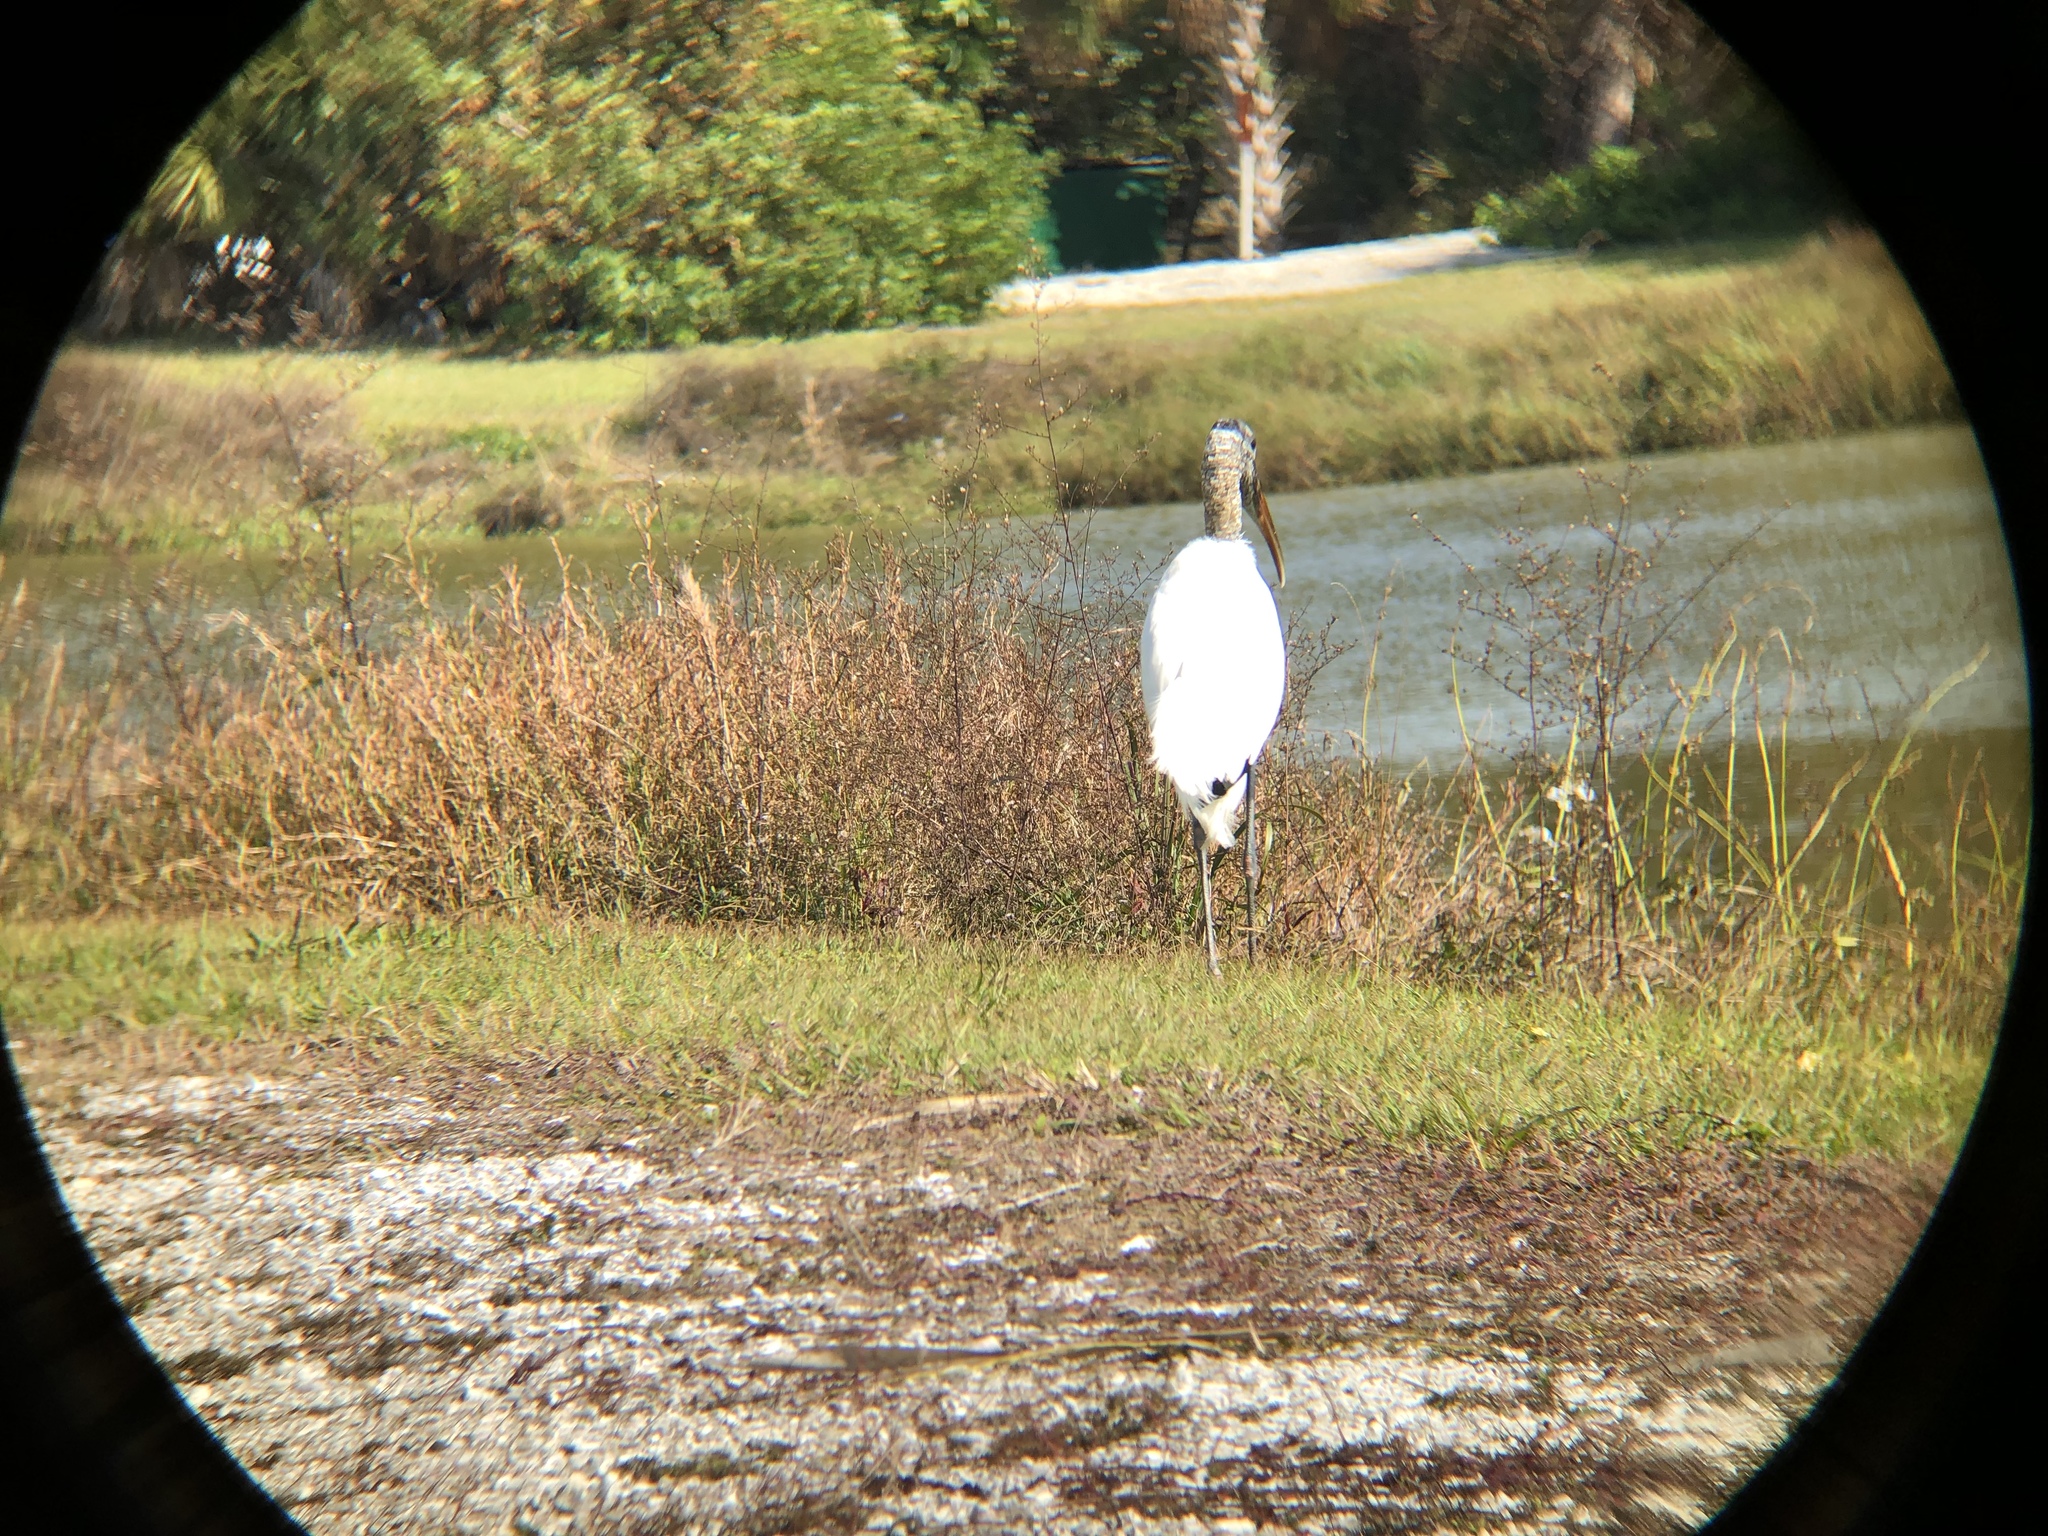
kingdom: Animalia
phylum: Chordata
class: Aves
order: Ciconiiformes
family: Ciconiidae
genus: Mycteria
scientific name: Mycteria americana
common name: Wood stork
